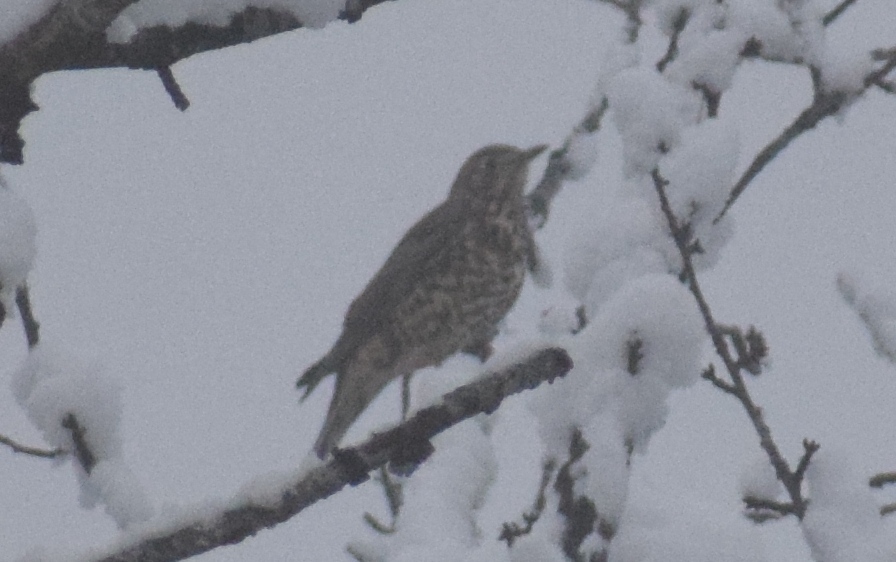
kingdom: Animalia
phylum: Chordata
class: Aves
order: Passeriformes
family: Turdidae
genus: Turdus
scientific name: Turdus viscivorus
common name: Mistle thrush
